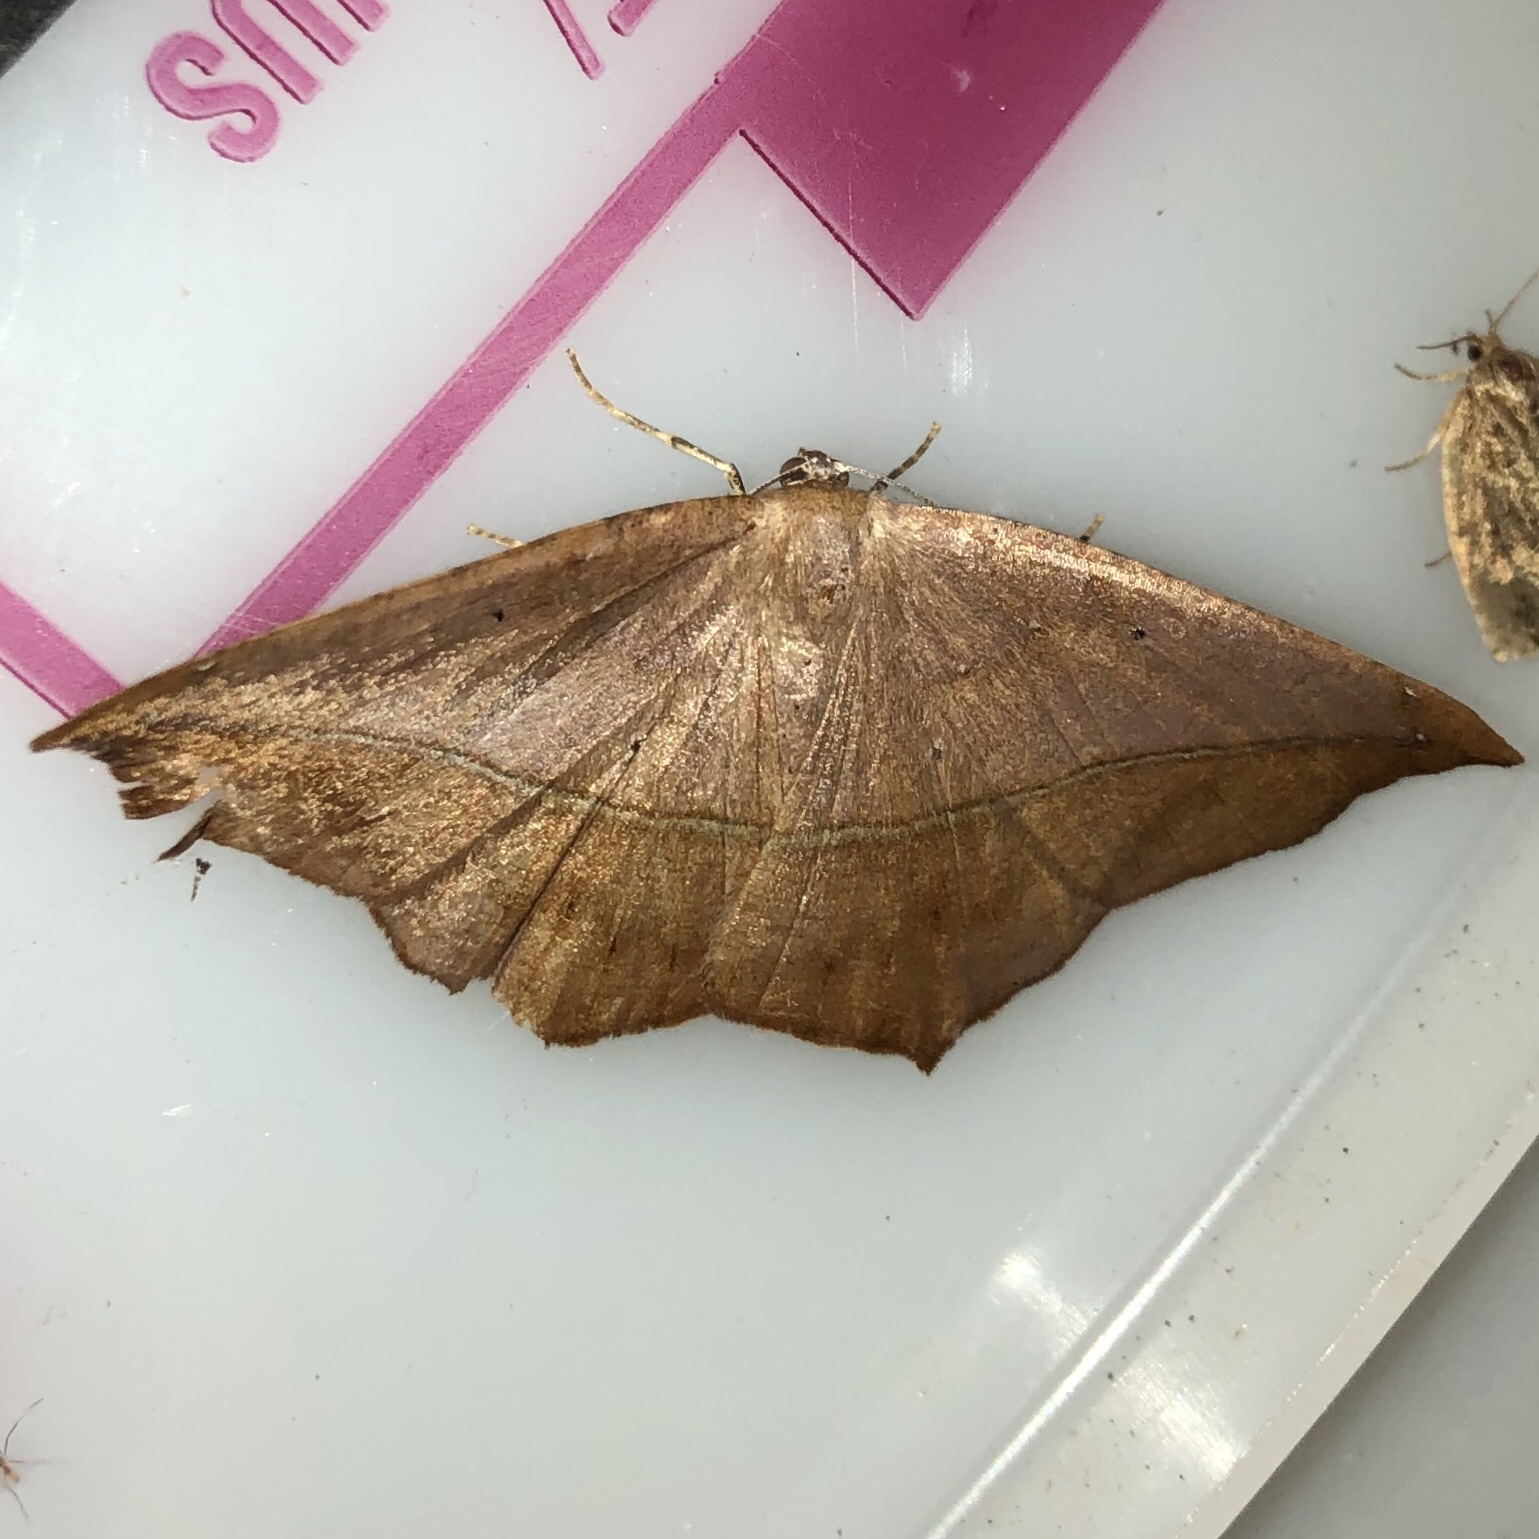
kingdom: Animalia
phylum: Arthropoda
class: Insecta
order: Lepidoptera
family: Geometridae
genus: Prochoerodes
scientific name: Prochoerodes lineola
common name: Large maple spanworm
